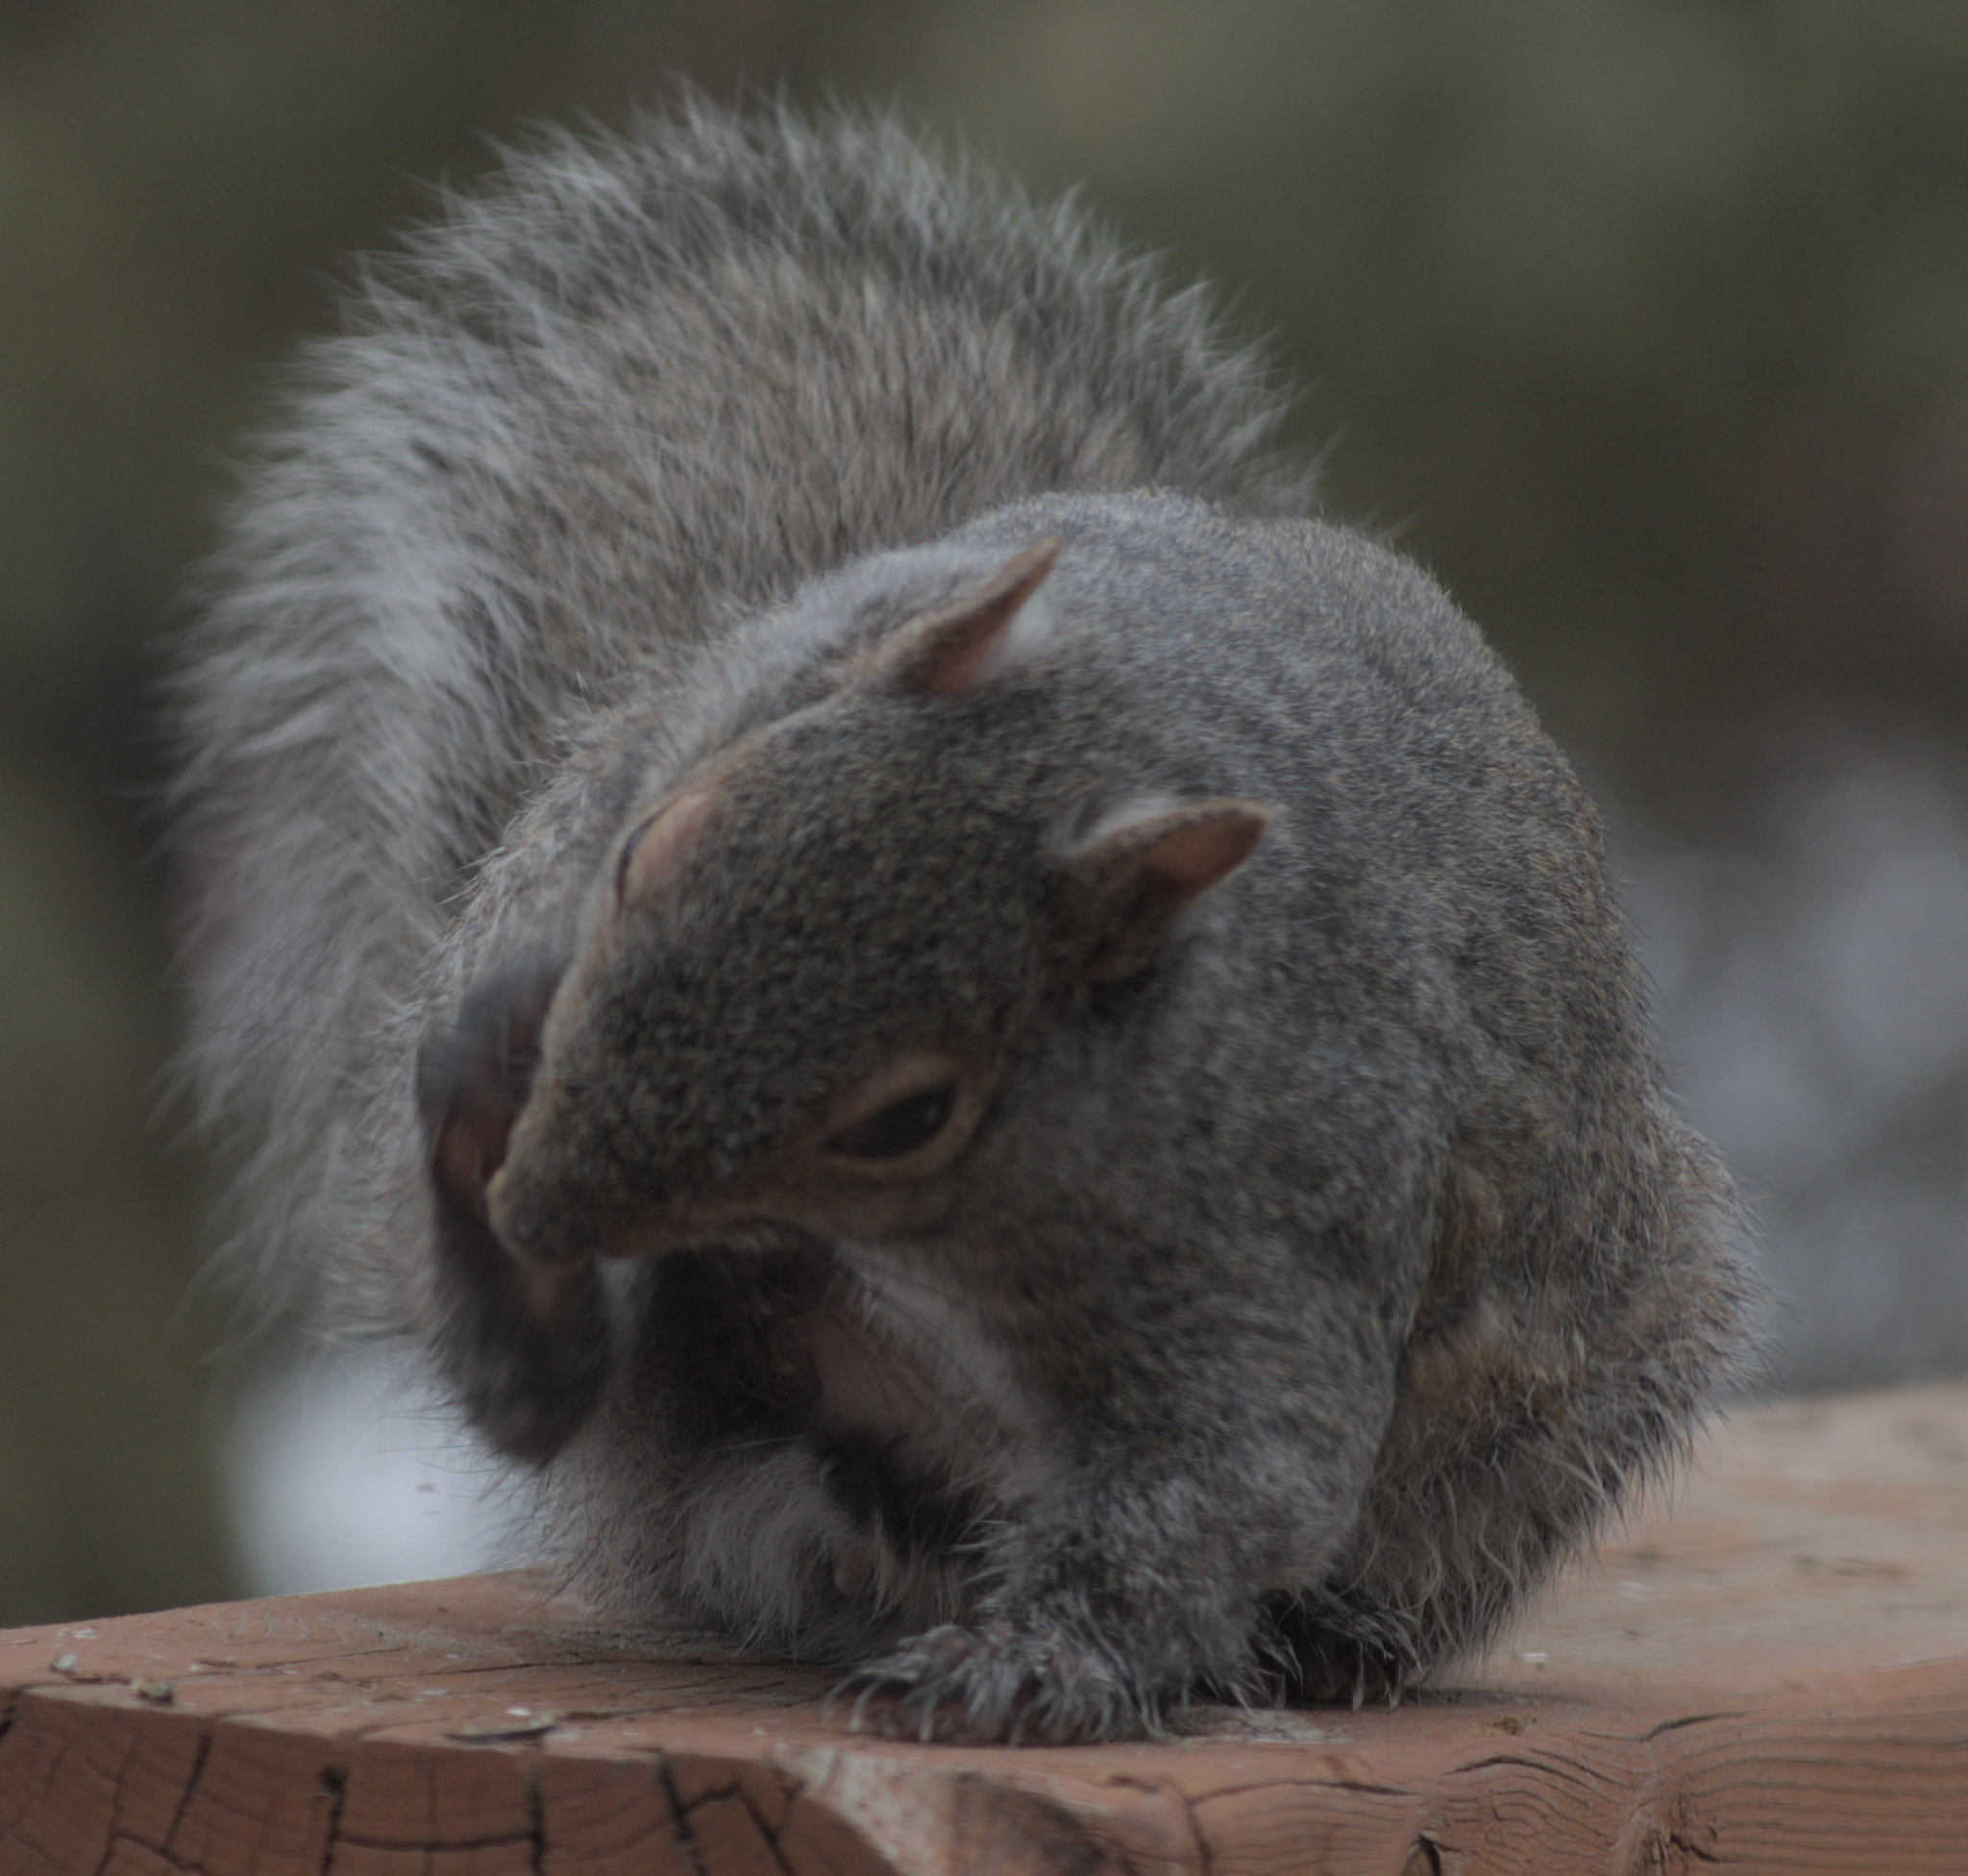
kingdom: Animalia
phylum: Chordata
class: Mammalia
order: Rodentia
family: Sciuridae
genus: Sciurus
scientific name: Sciurus carolinensis
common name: Eastern gray squirrel
